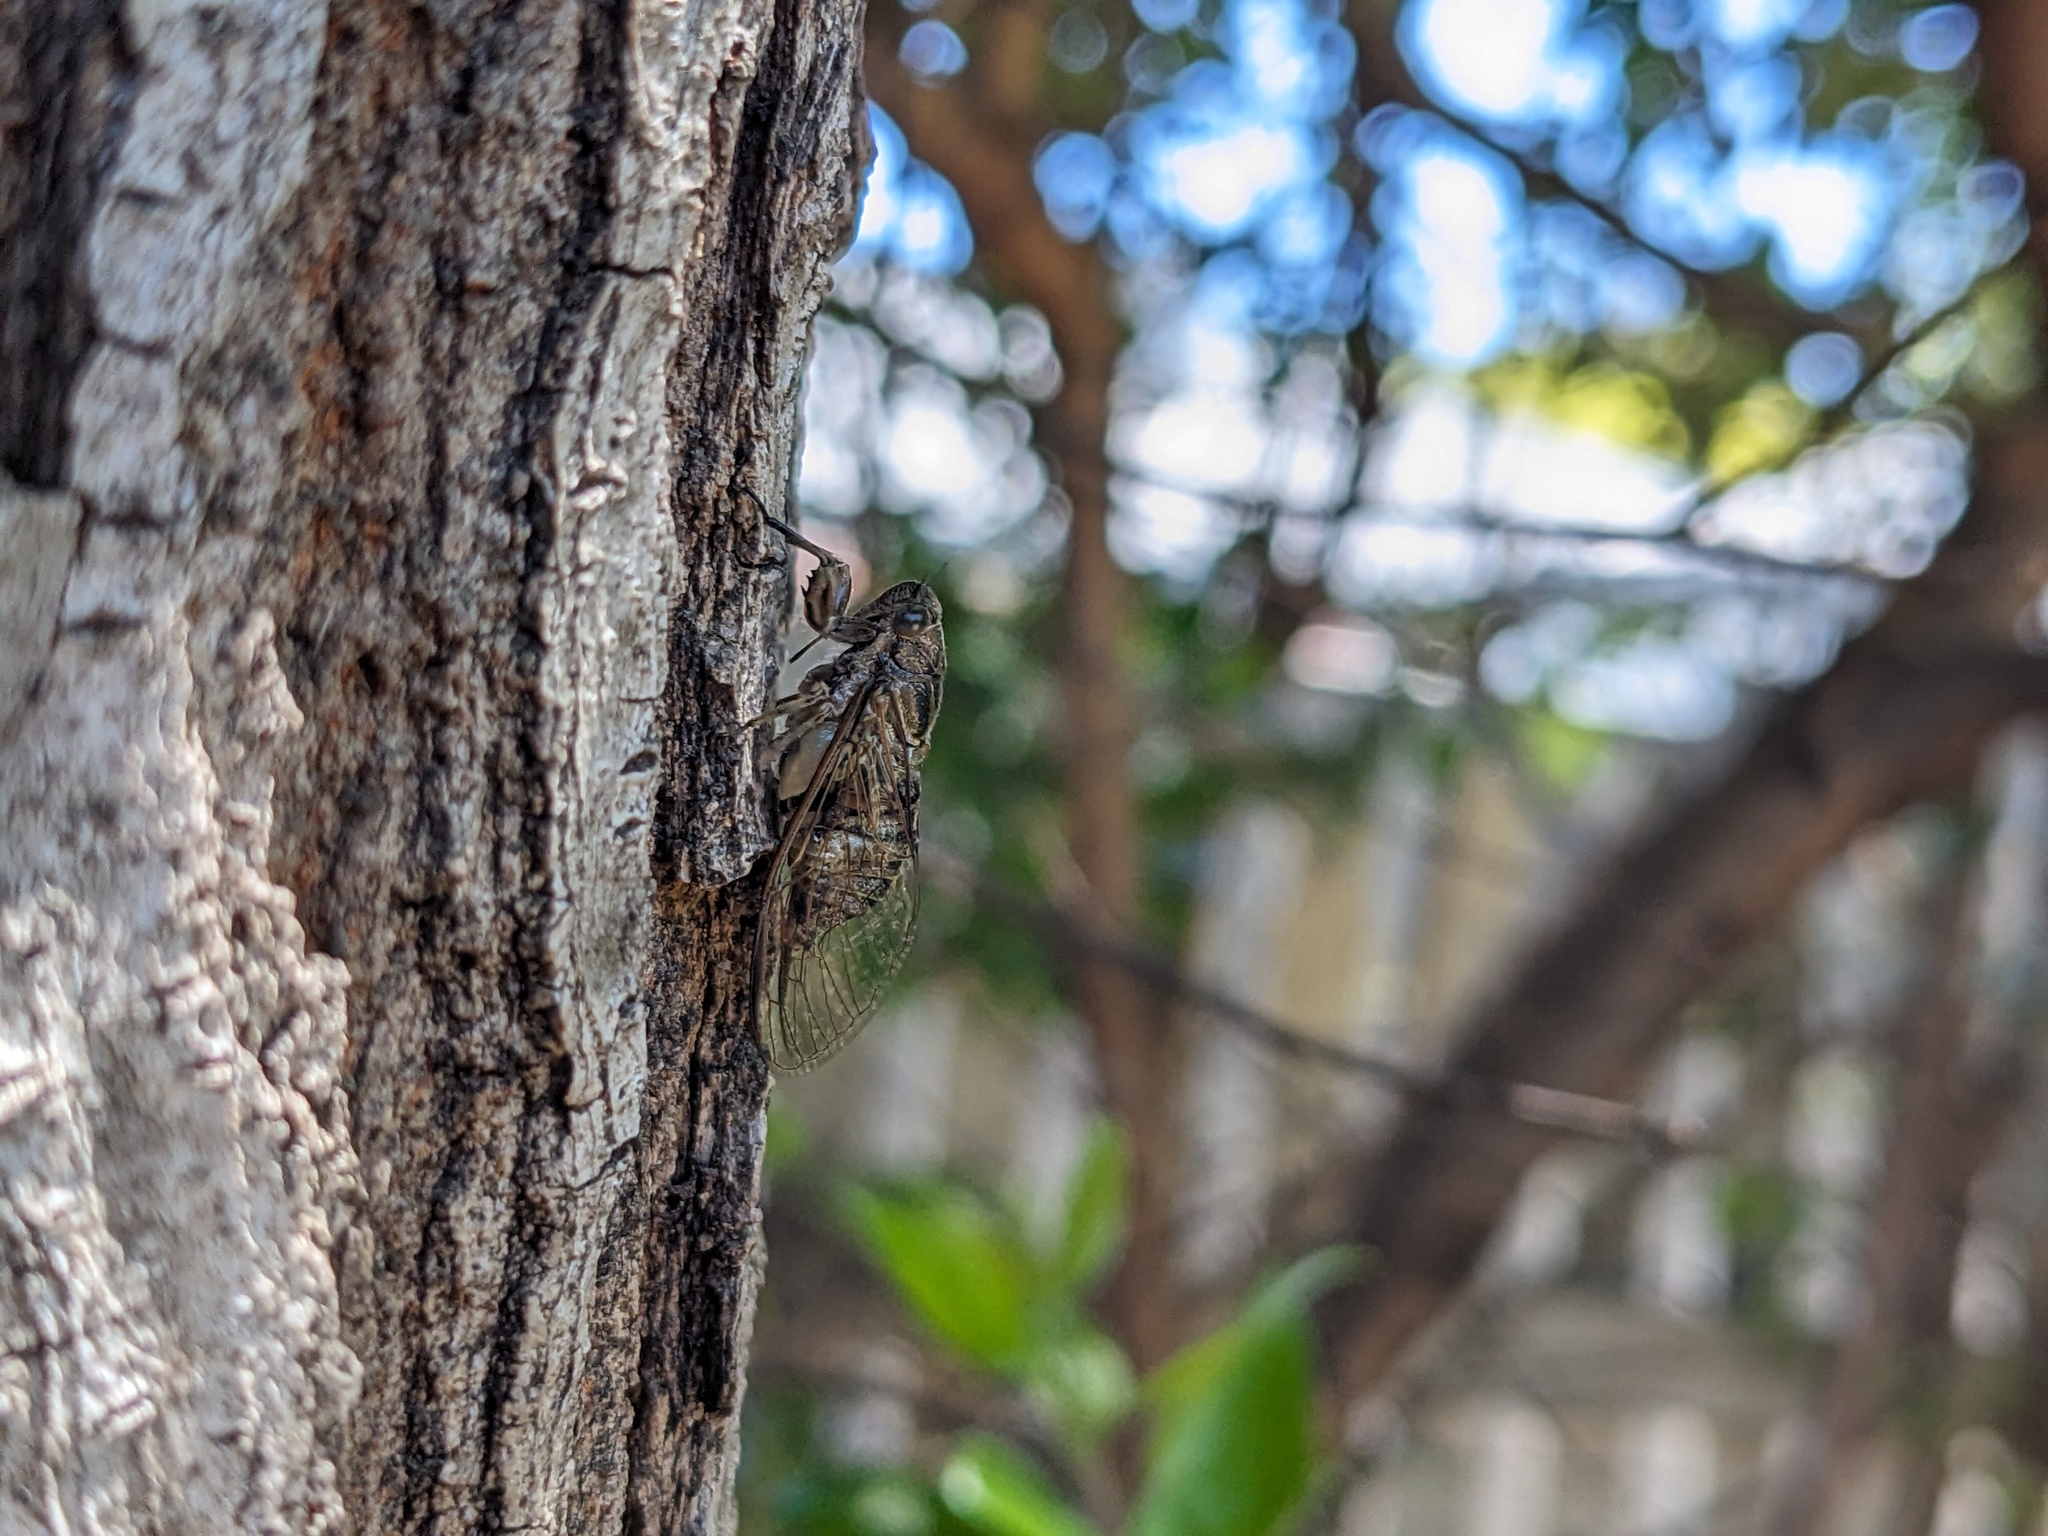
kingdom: Animalia
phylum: Arthropoda
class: Insecta
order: Hemiptera
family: Cicadidae
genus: Physeema
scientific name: Physeema quadricincta
